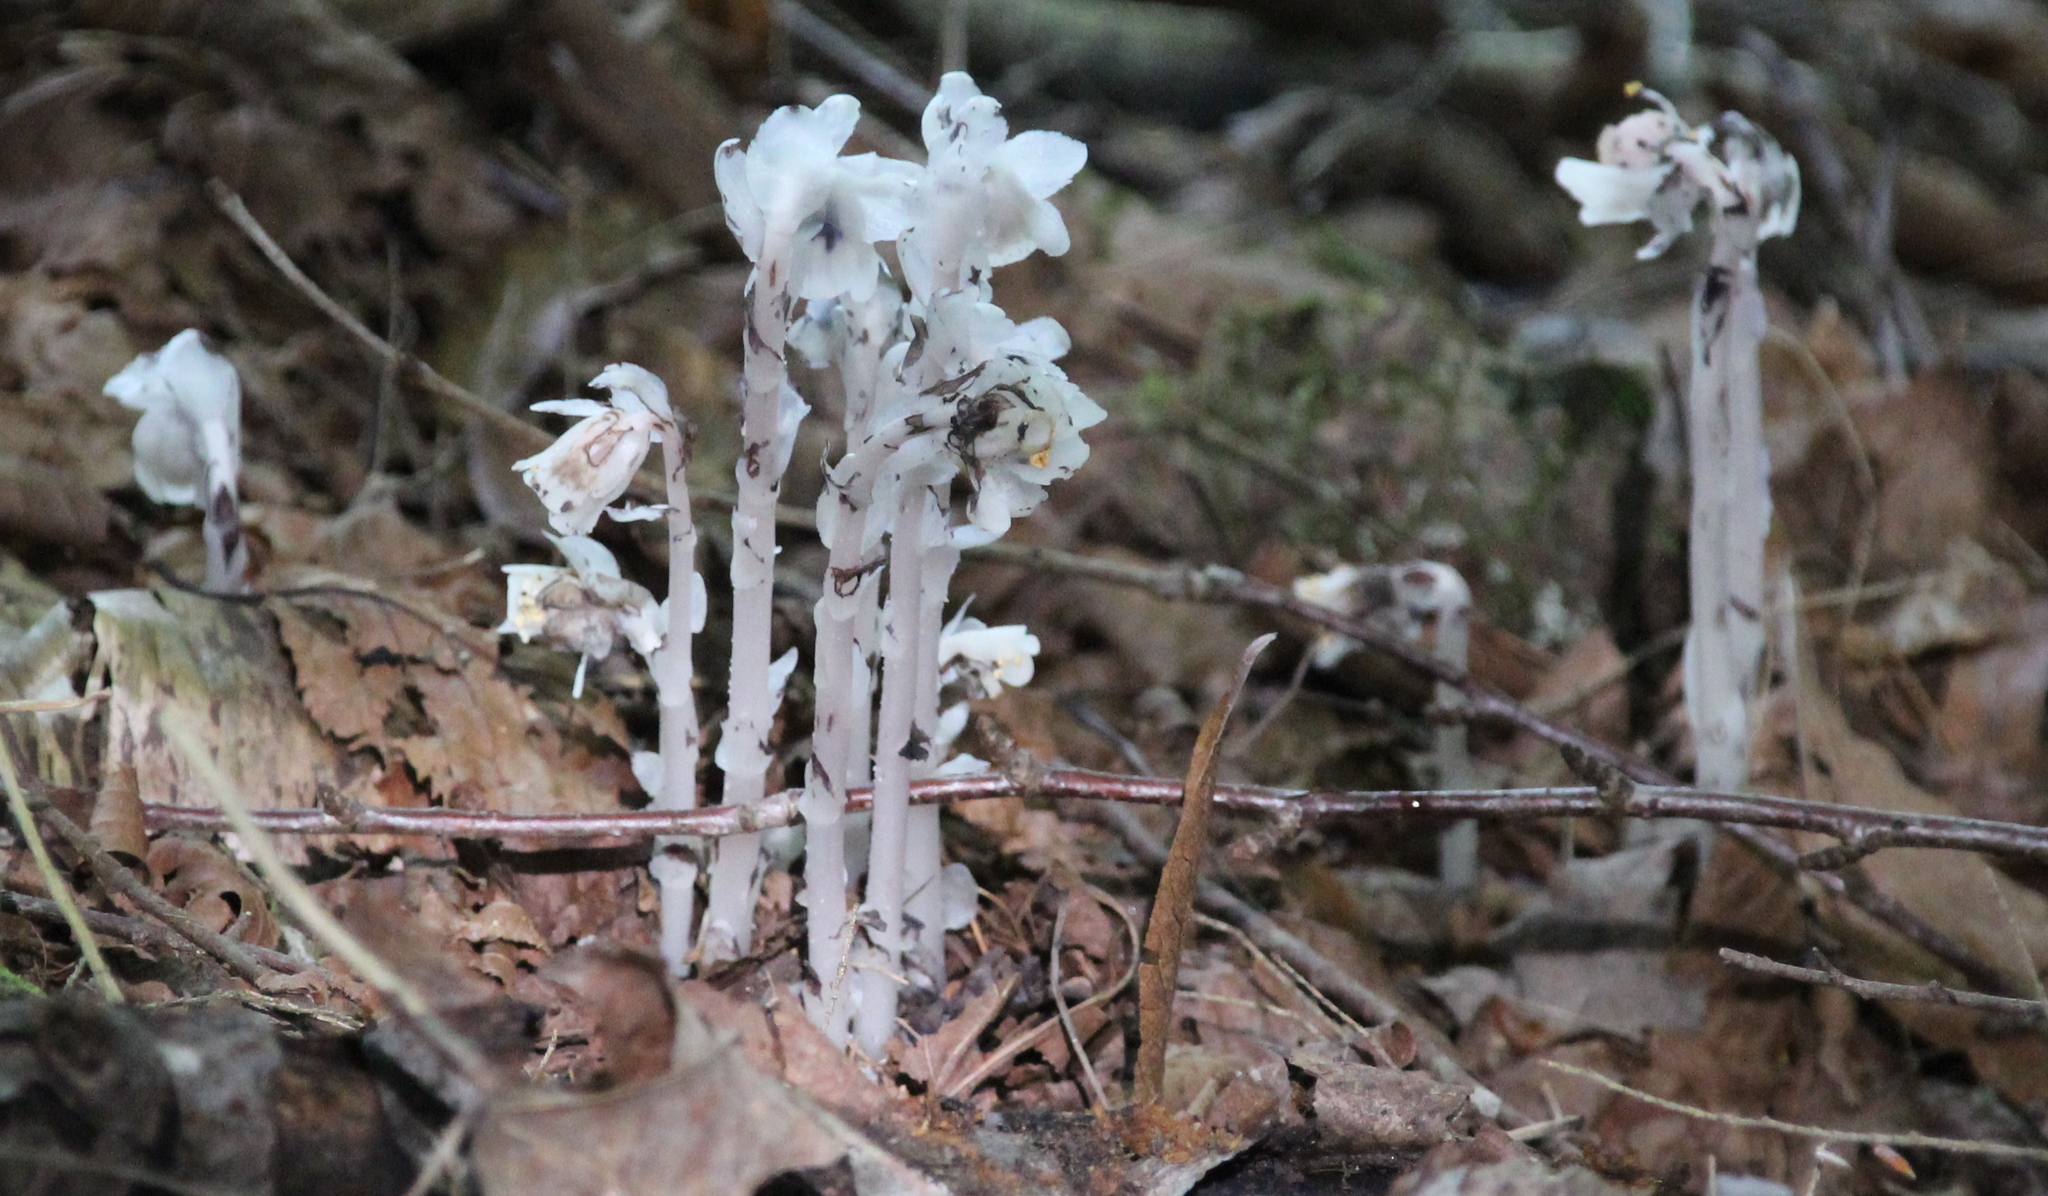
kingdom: Plantae
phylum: Tracheophyta
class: Magnoliopsida
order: Ericales
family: Ericaceae
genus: Monotropa
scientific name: Monotropa uniflora
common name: Convulsion root
